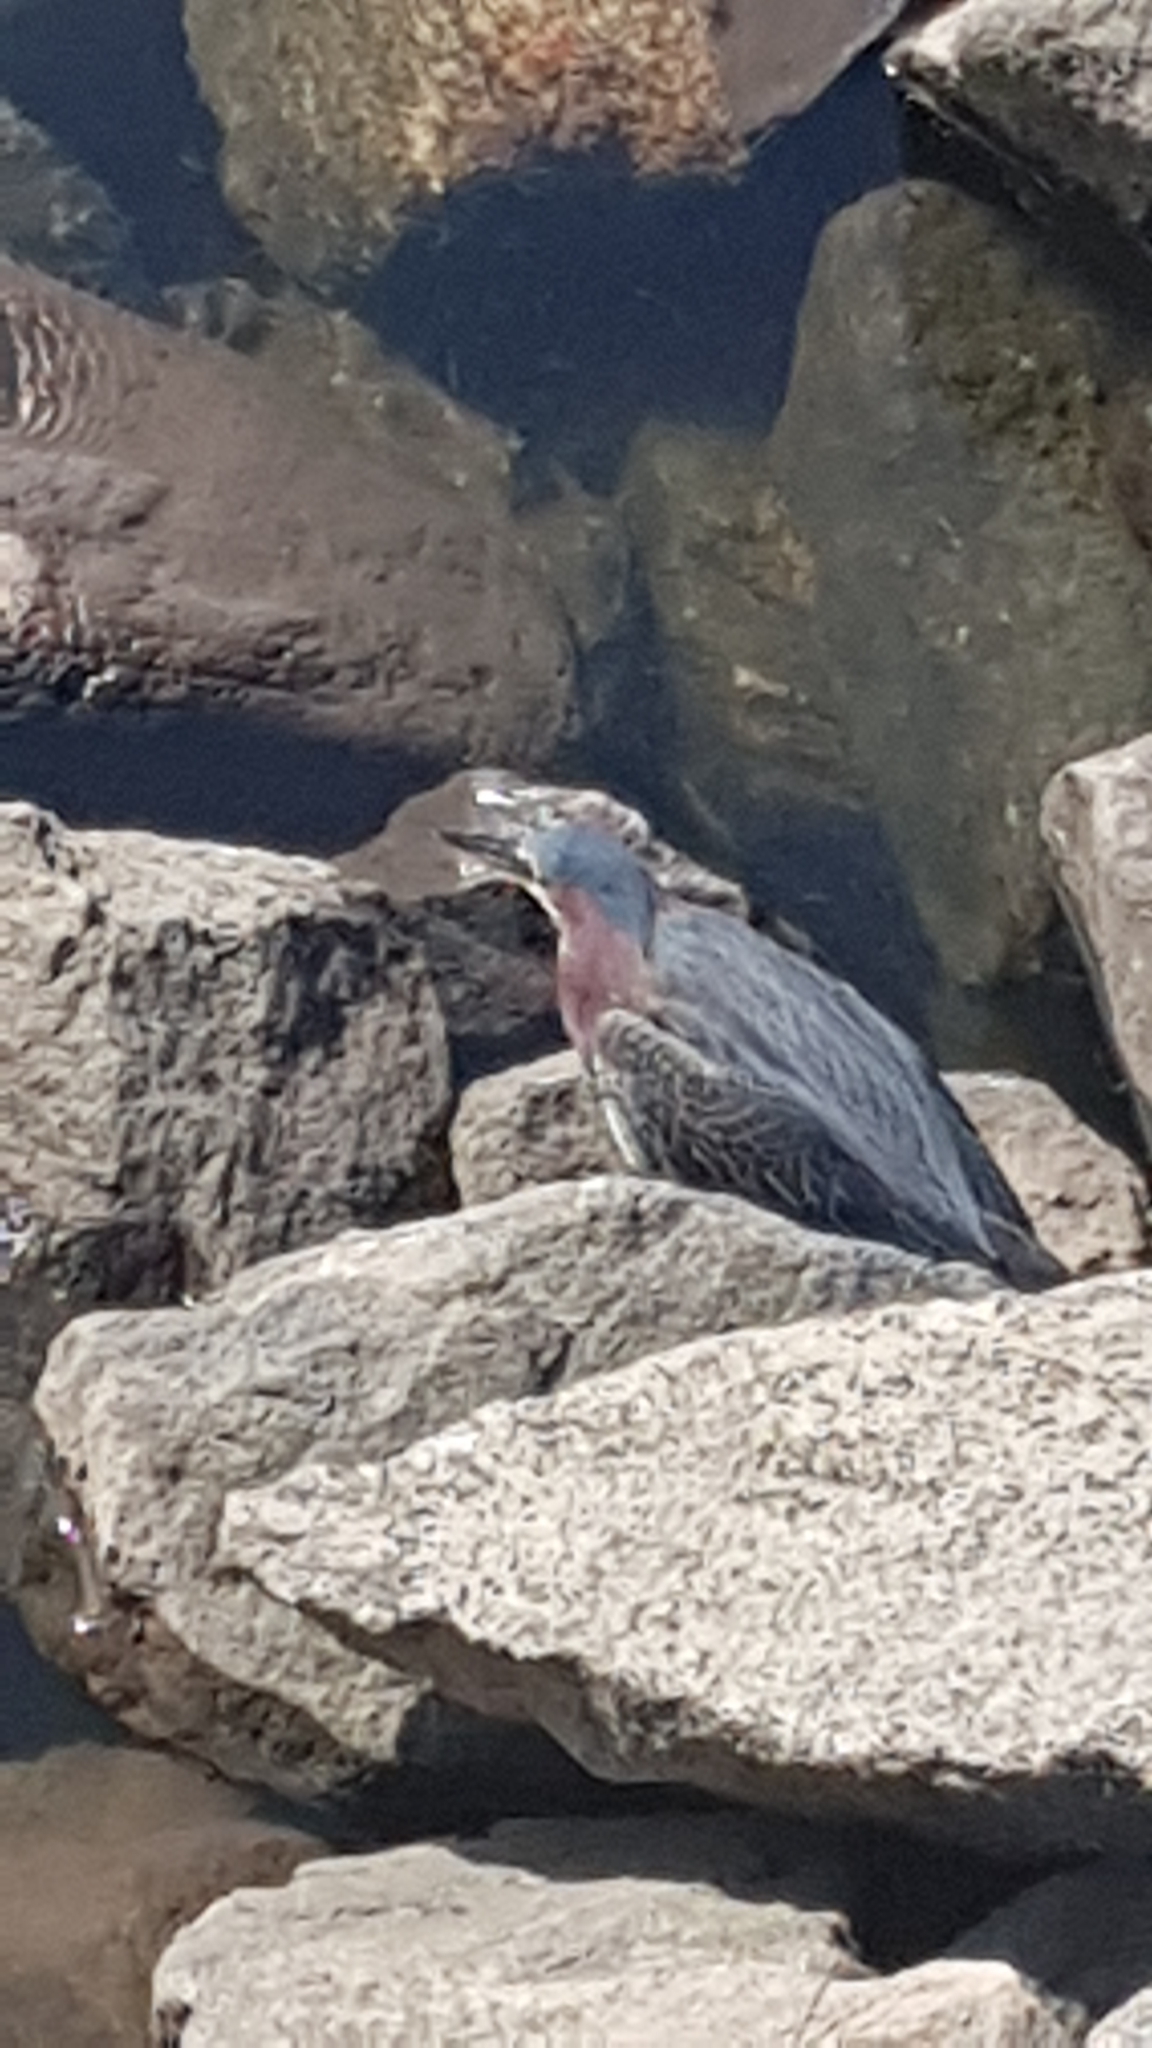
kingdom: Animalia
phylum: Chordata
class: Aves
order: Pelecaniformes
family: Ardeidae
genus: Butorides
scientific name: Butorides virescens
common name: Green heron
